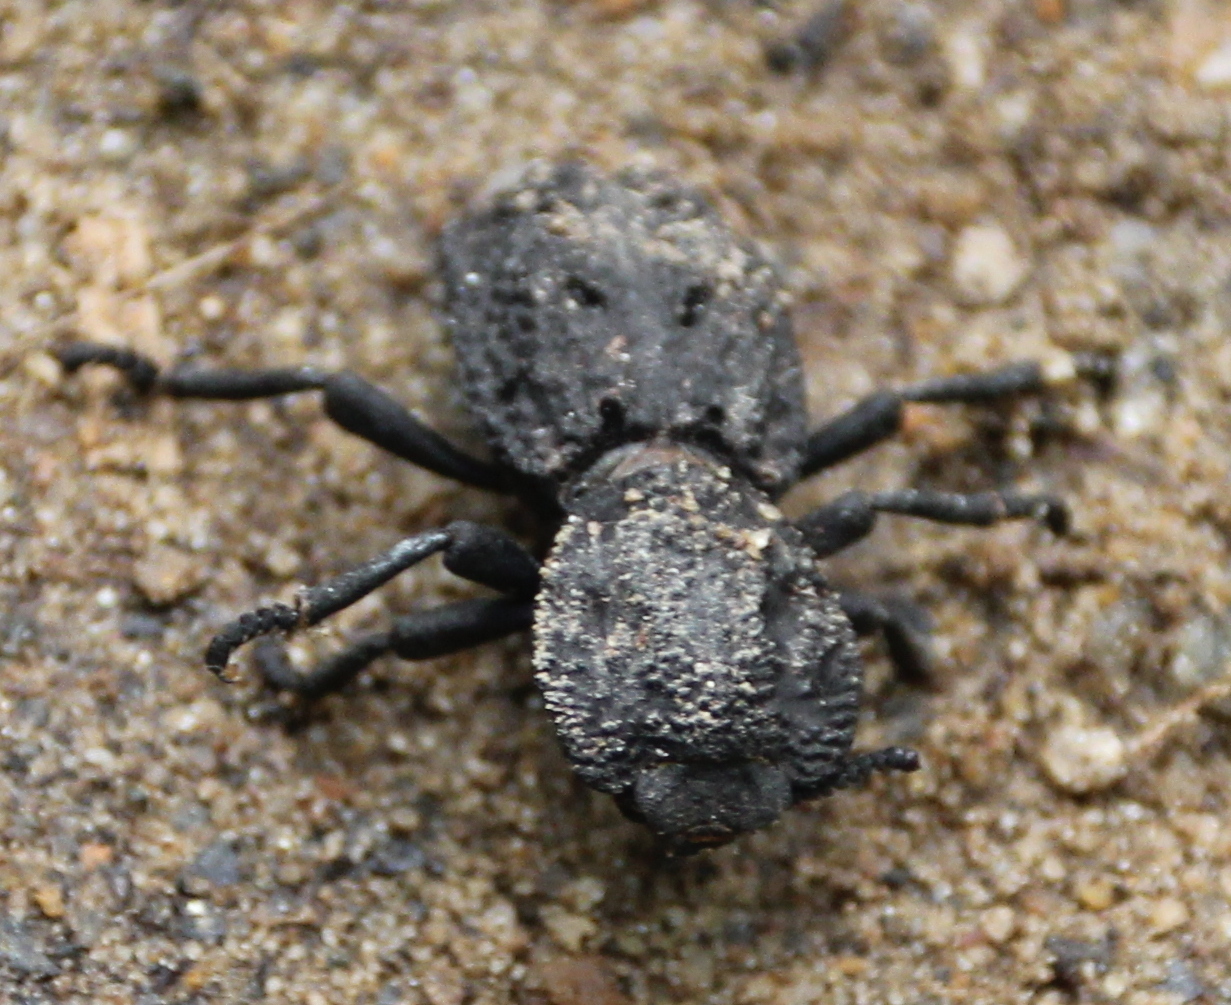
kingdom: Animalia
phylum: Arthropoda
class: Insecta
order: Coleoptera
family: Zopheridae
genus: Phloeodes
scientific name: Phloeodes diabolicus
